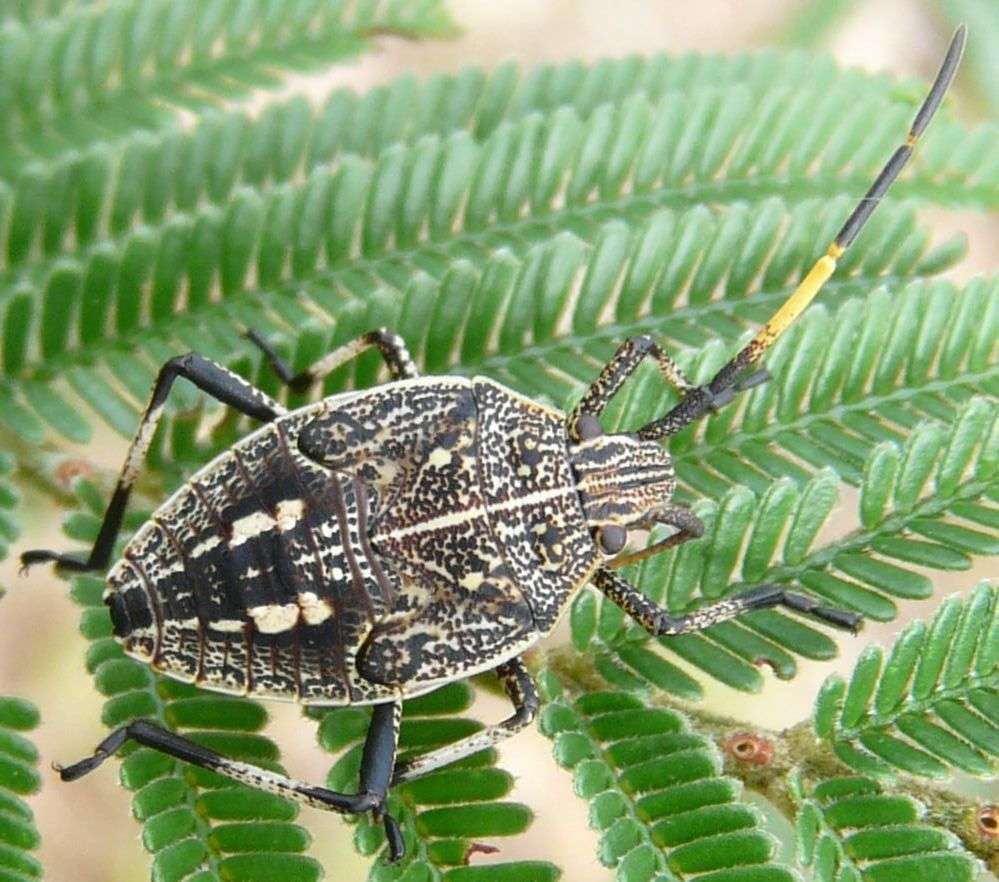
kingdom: Animalia
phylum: Arthropoda
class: Insecta
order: Hemiptera
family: Pentatomidae
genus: Poecilometis
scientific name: Poecilometis
